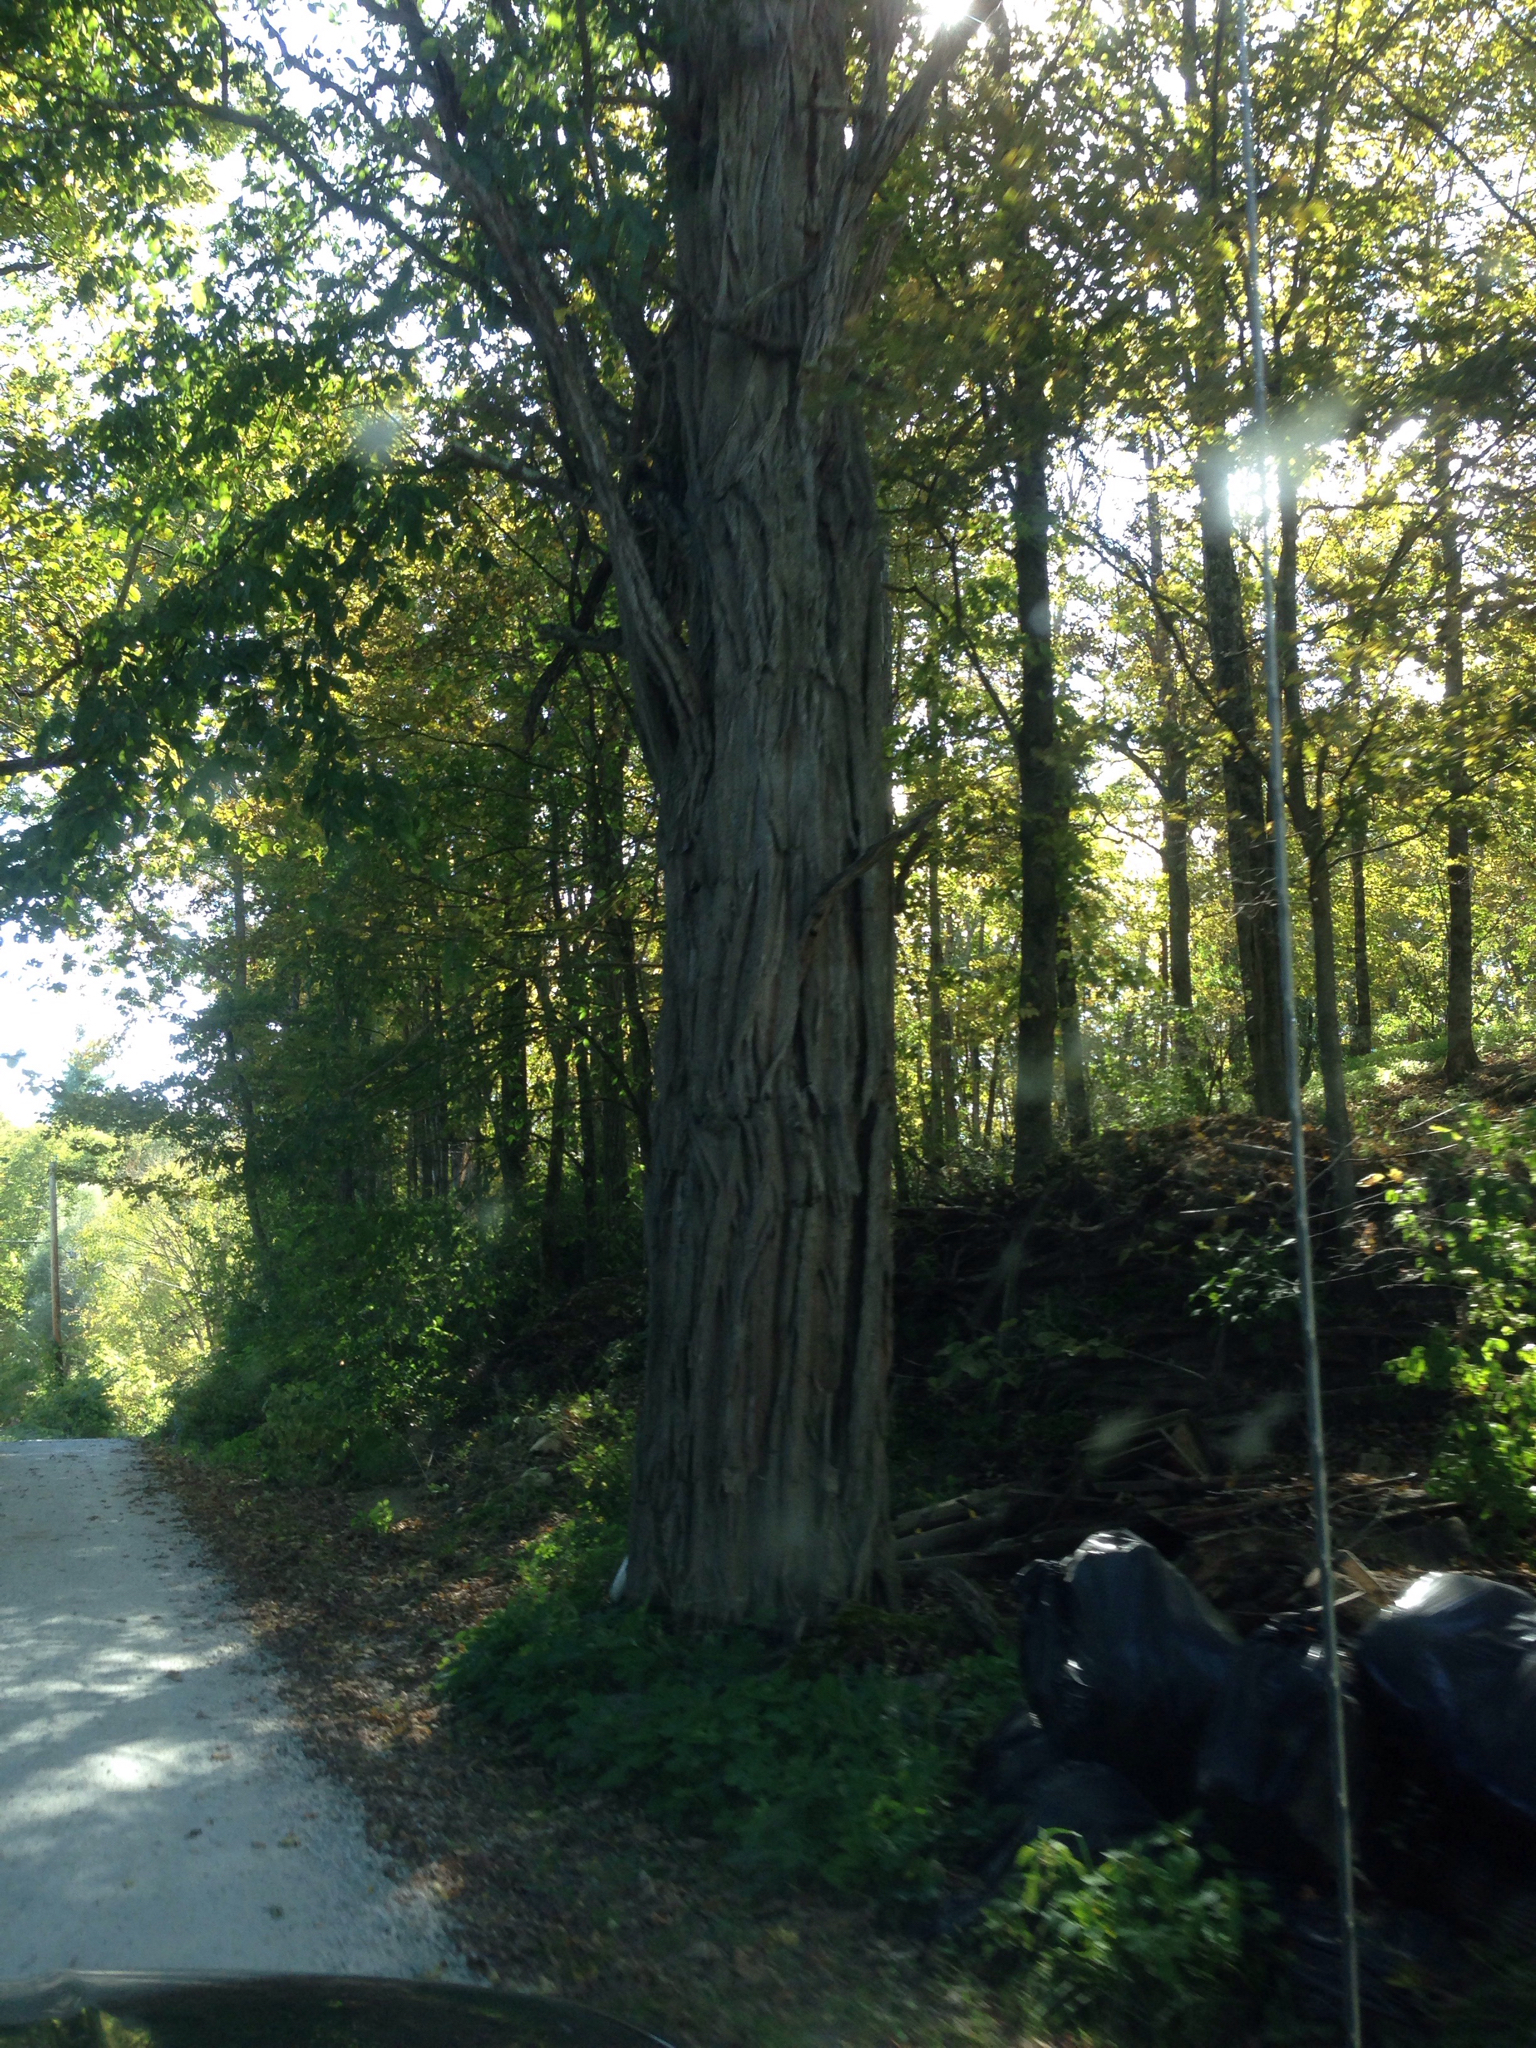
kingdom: Plantae
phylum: Tracheophyta
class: Magnoliopsida
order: Fabales
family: Fabaceae
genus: Robinia
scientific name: Robinia pseudoacacia
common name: Black locust
